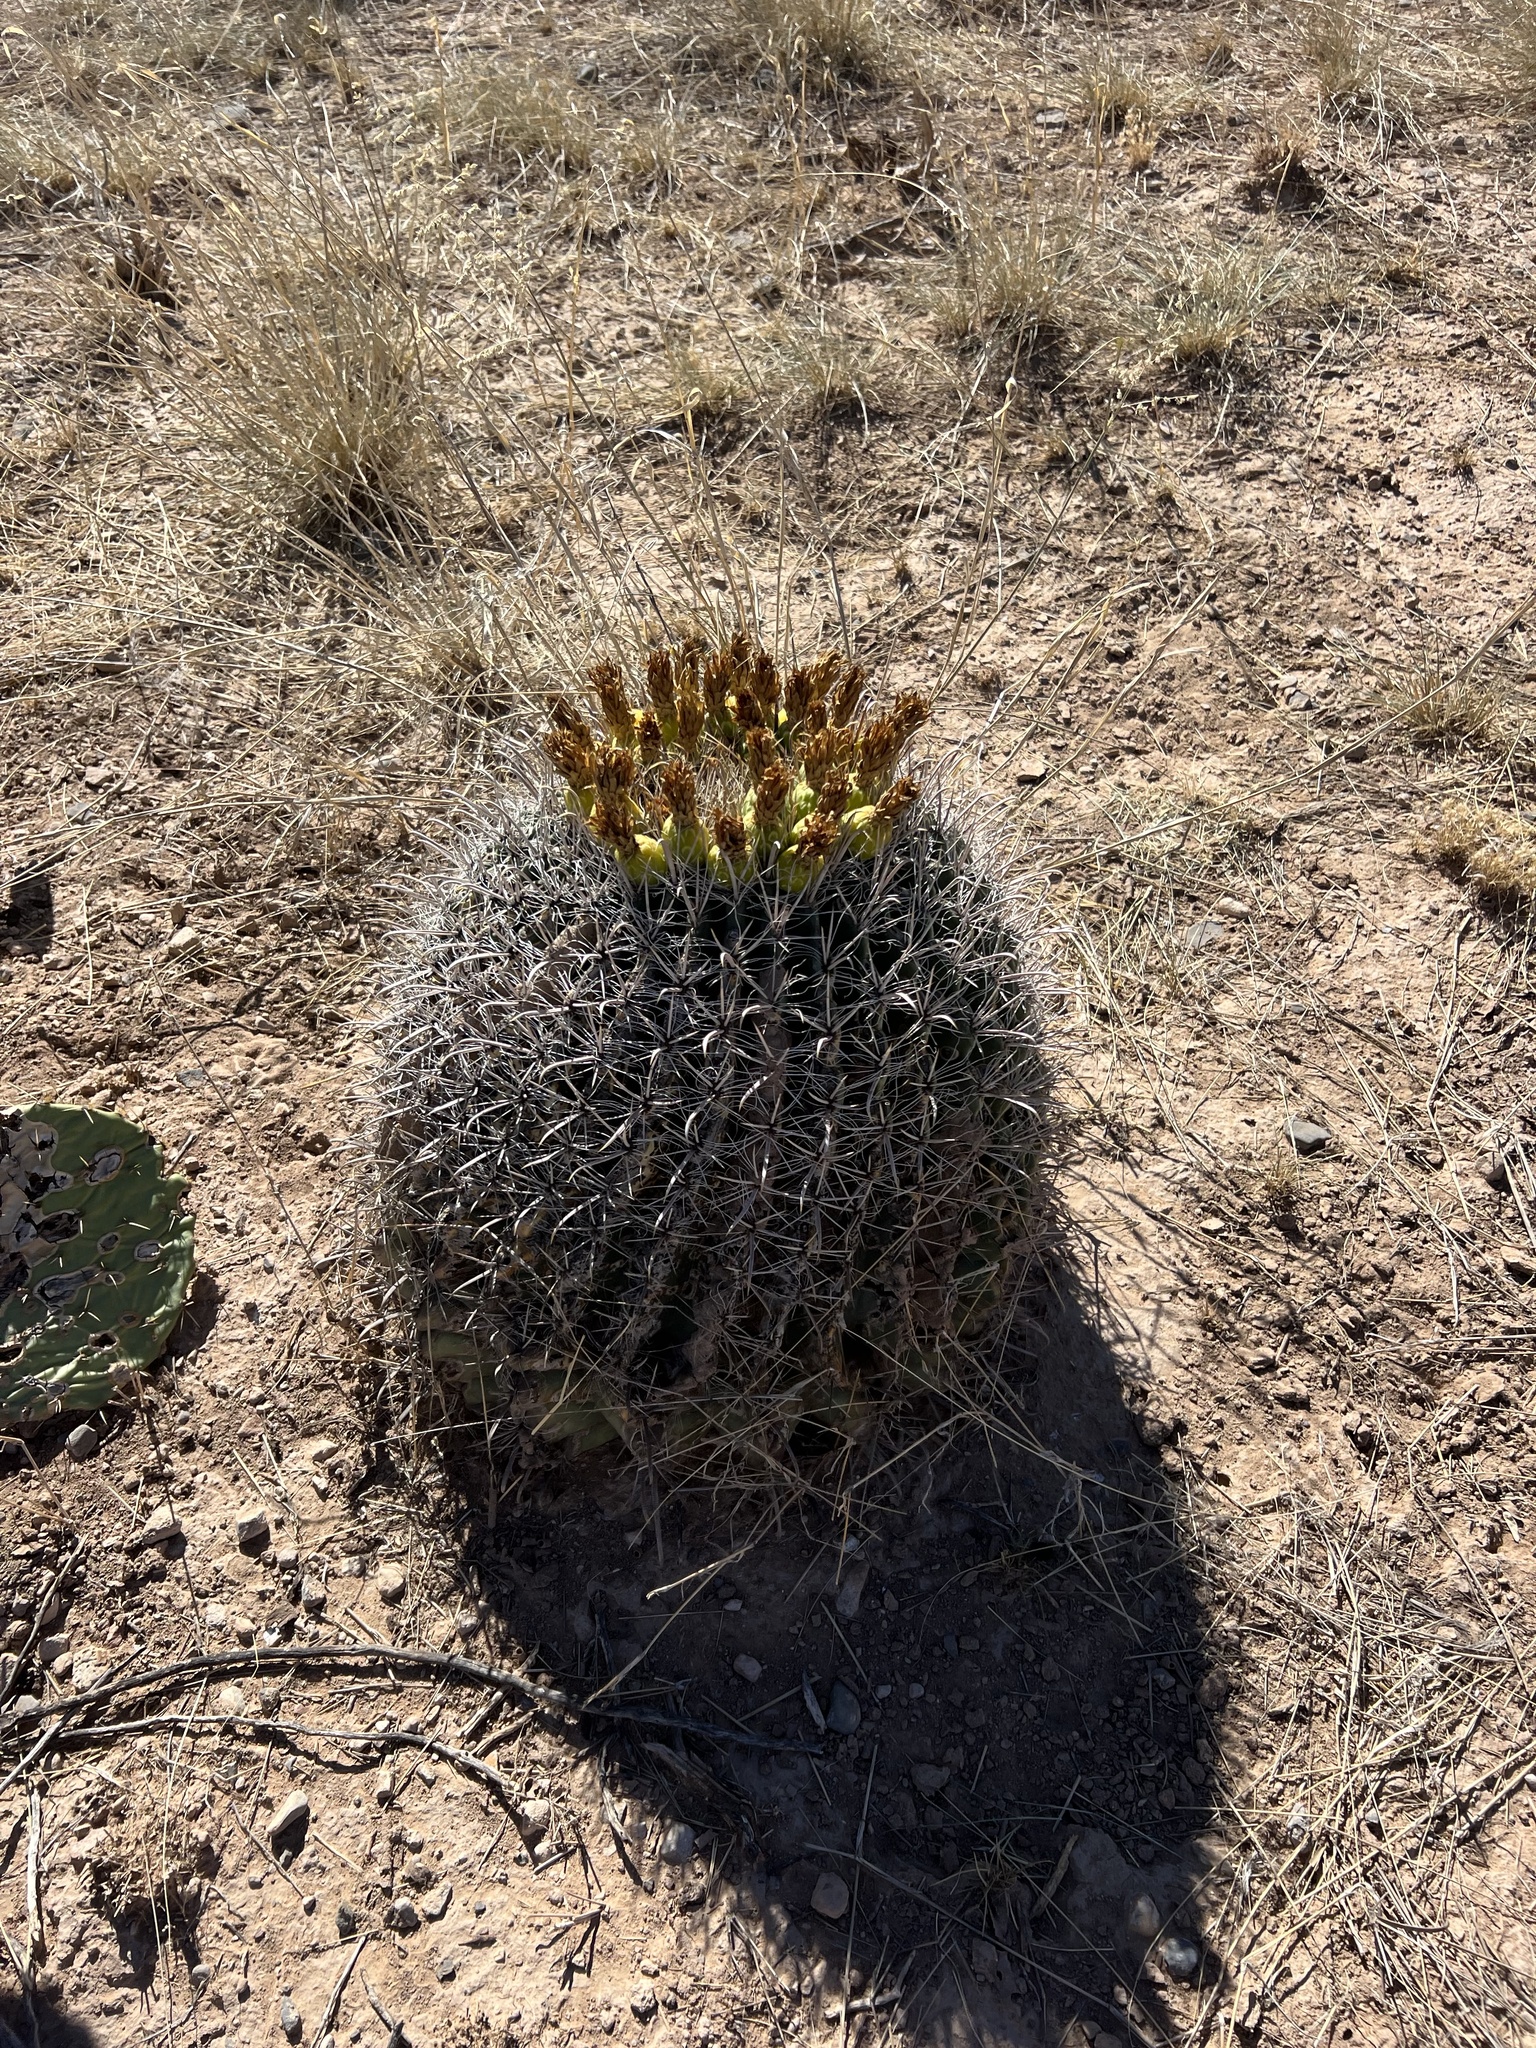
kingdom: Plantae
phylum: Tracheophyta
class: Magnoliopsida
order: Caryophyllales
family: Cactaceae
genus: Ferocactus
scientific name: Ferocactus wislizeni
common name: Candy barrel cactus
